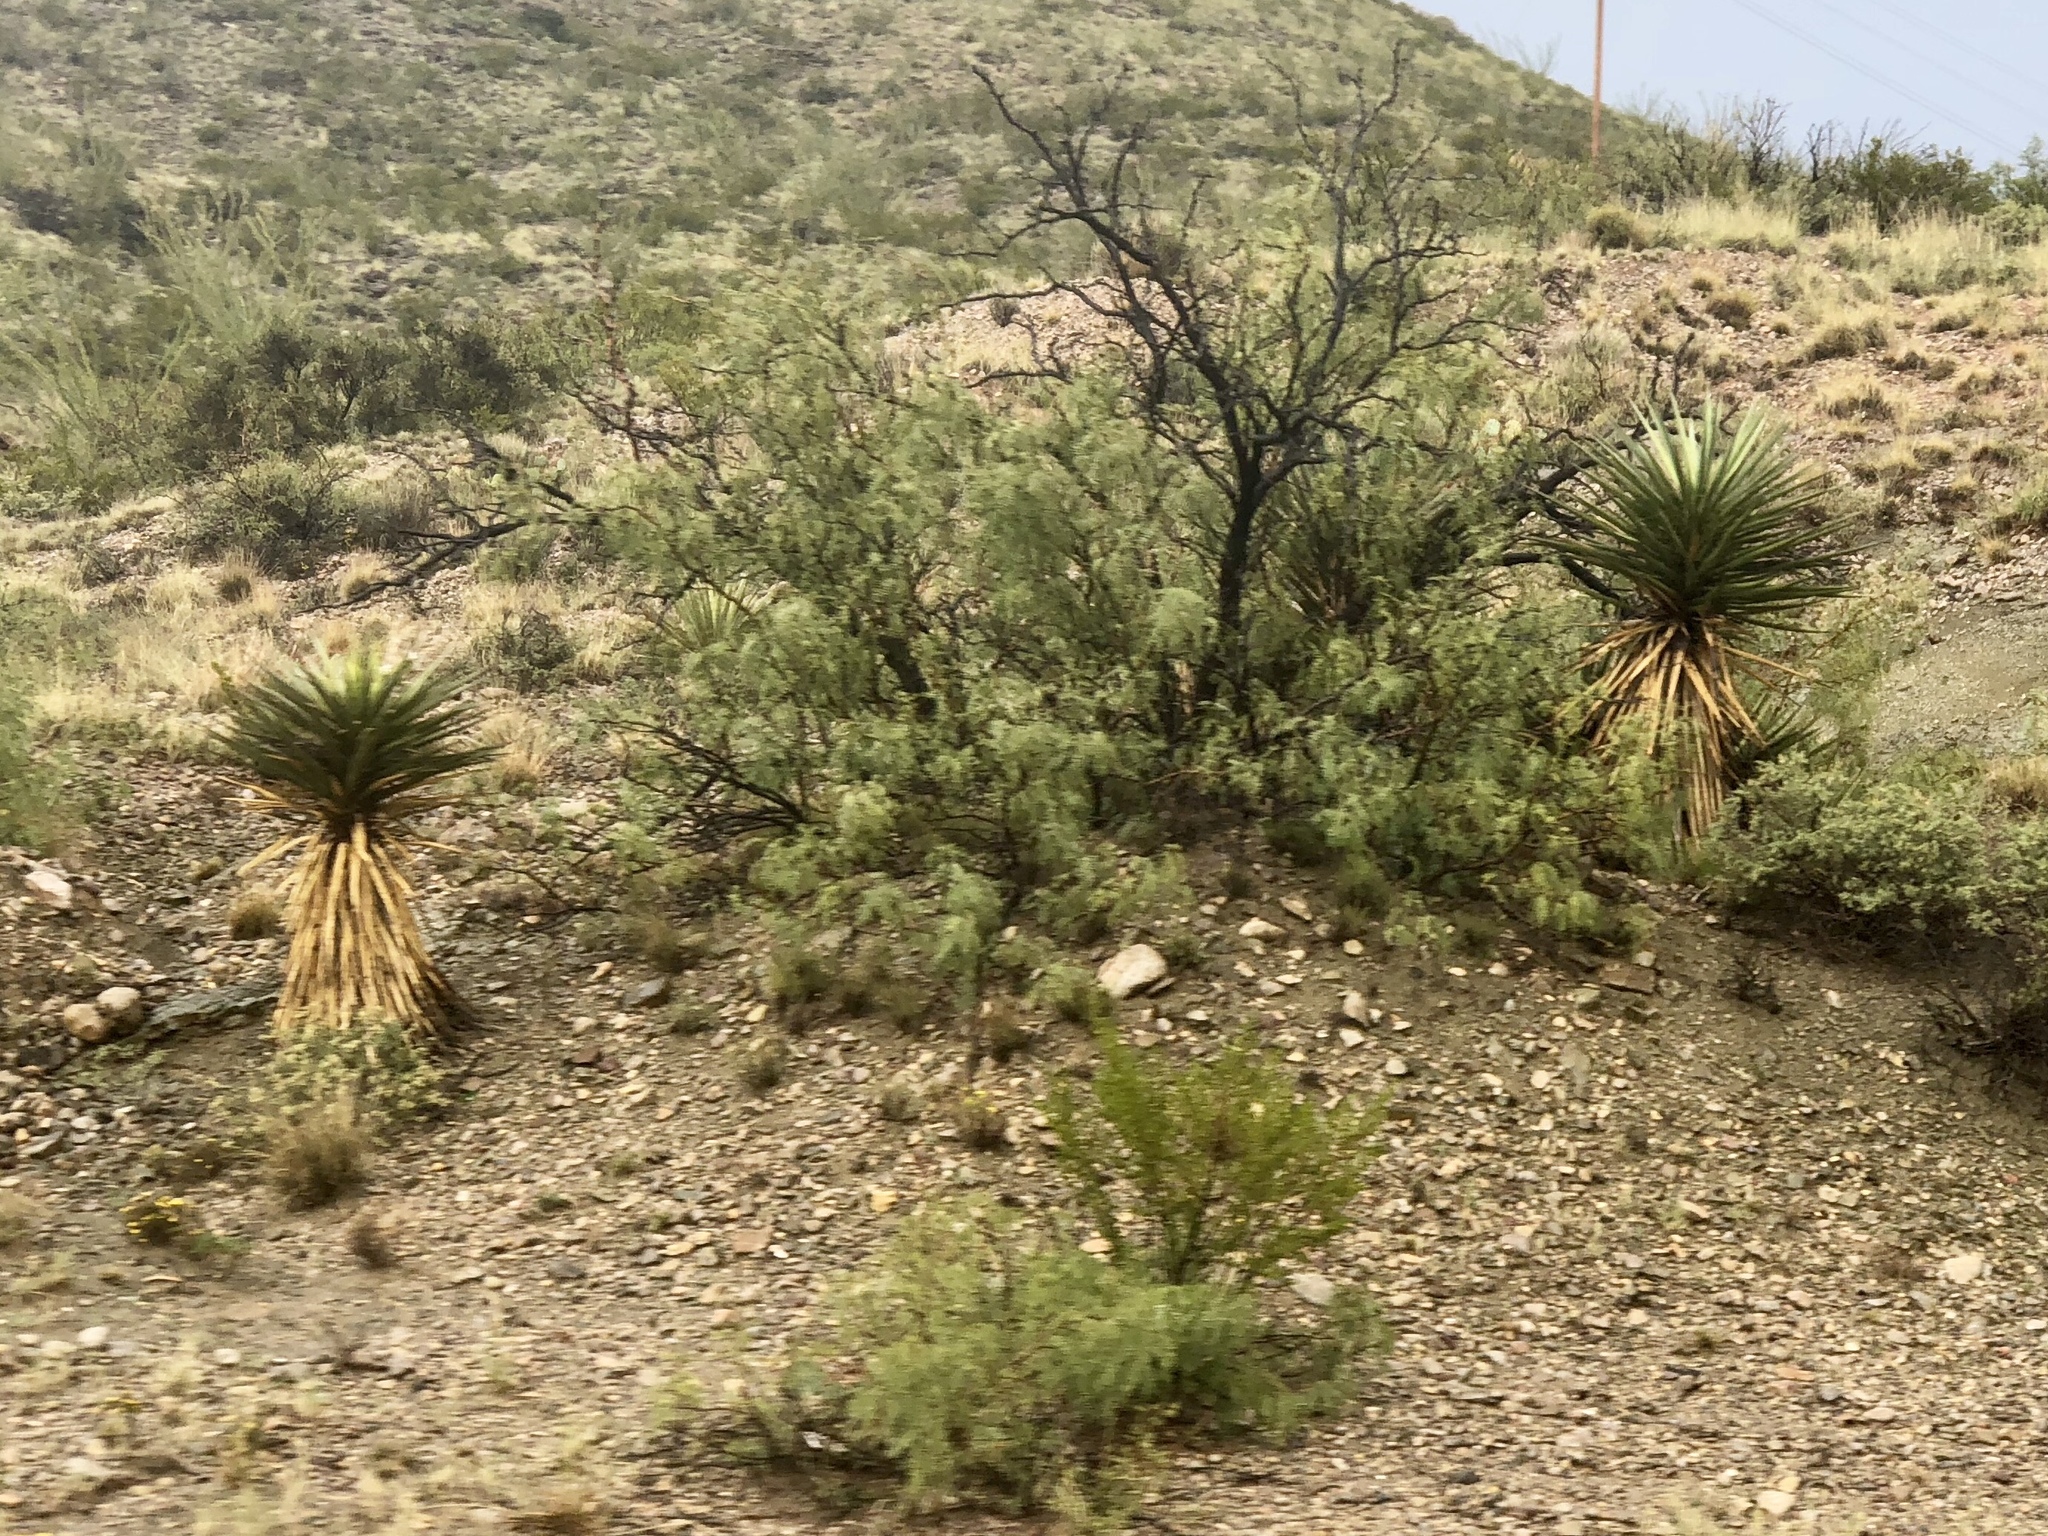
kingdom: Plantae
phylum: Tracheophyta
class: Liliopsida
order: Asparagales
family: Asparagaceae
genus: Yucca
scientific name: Yucca treculiana
